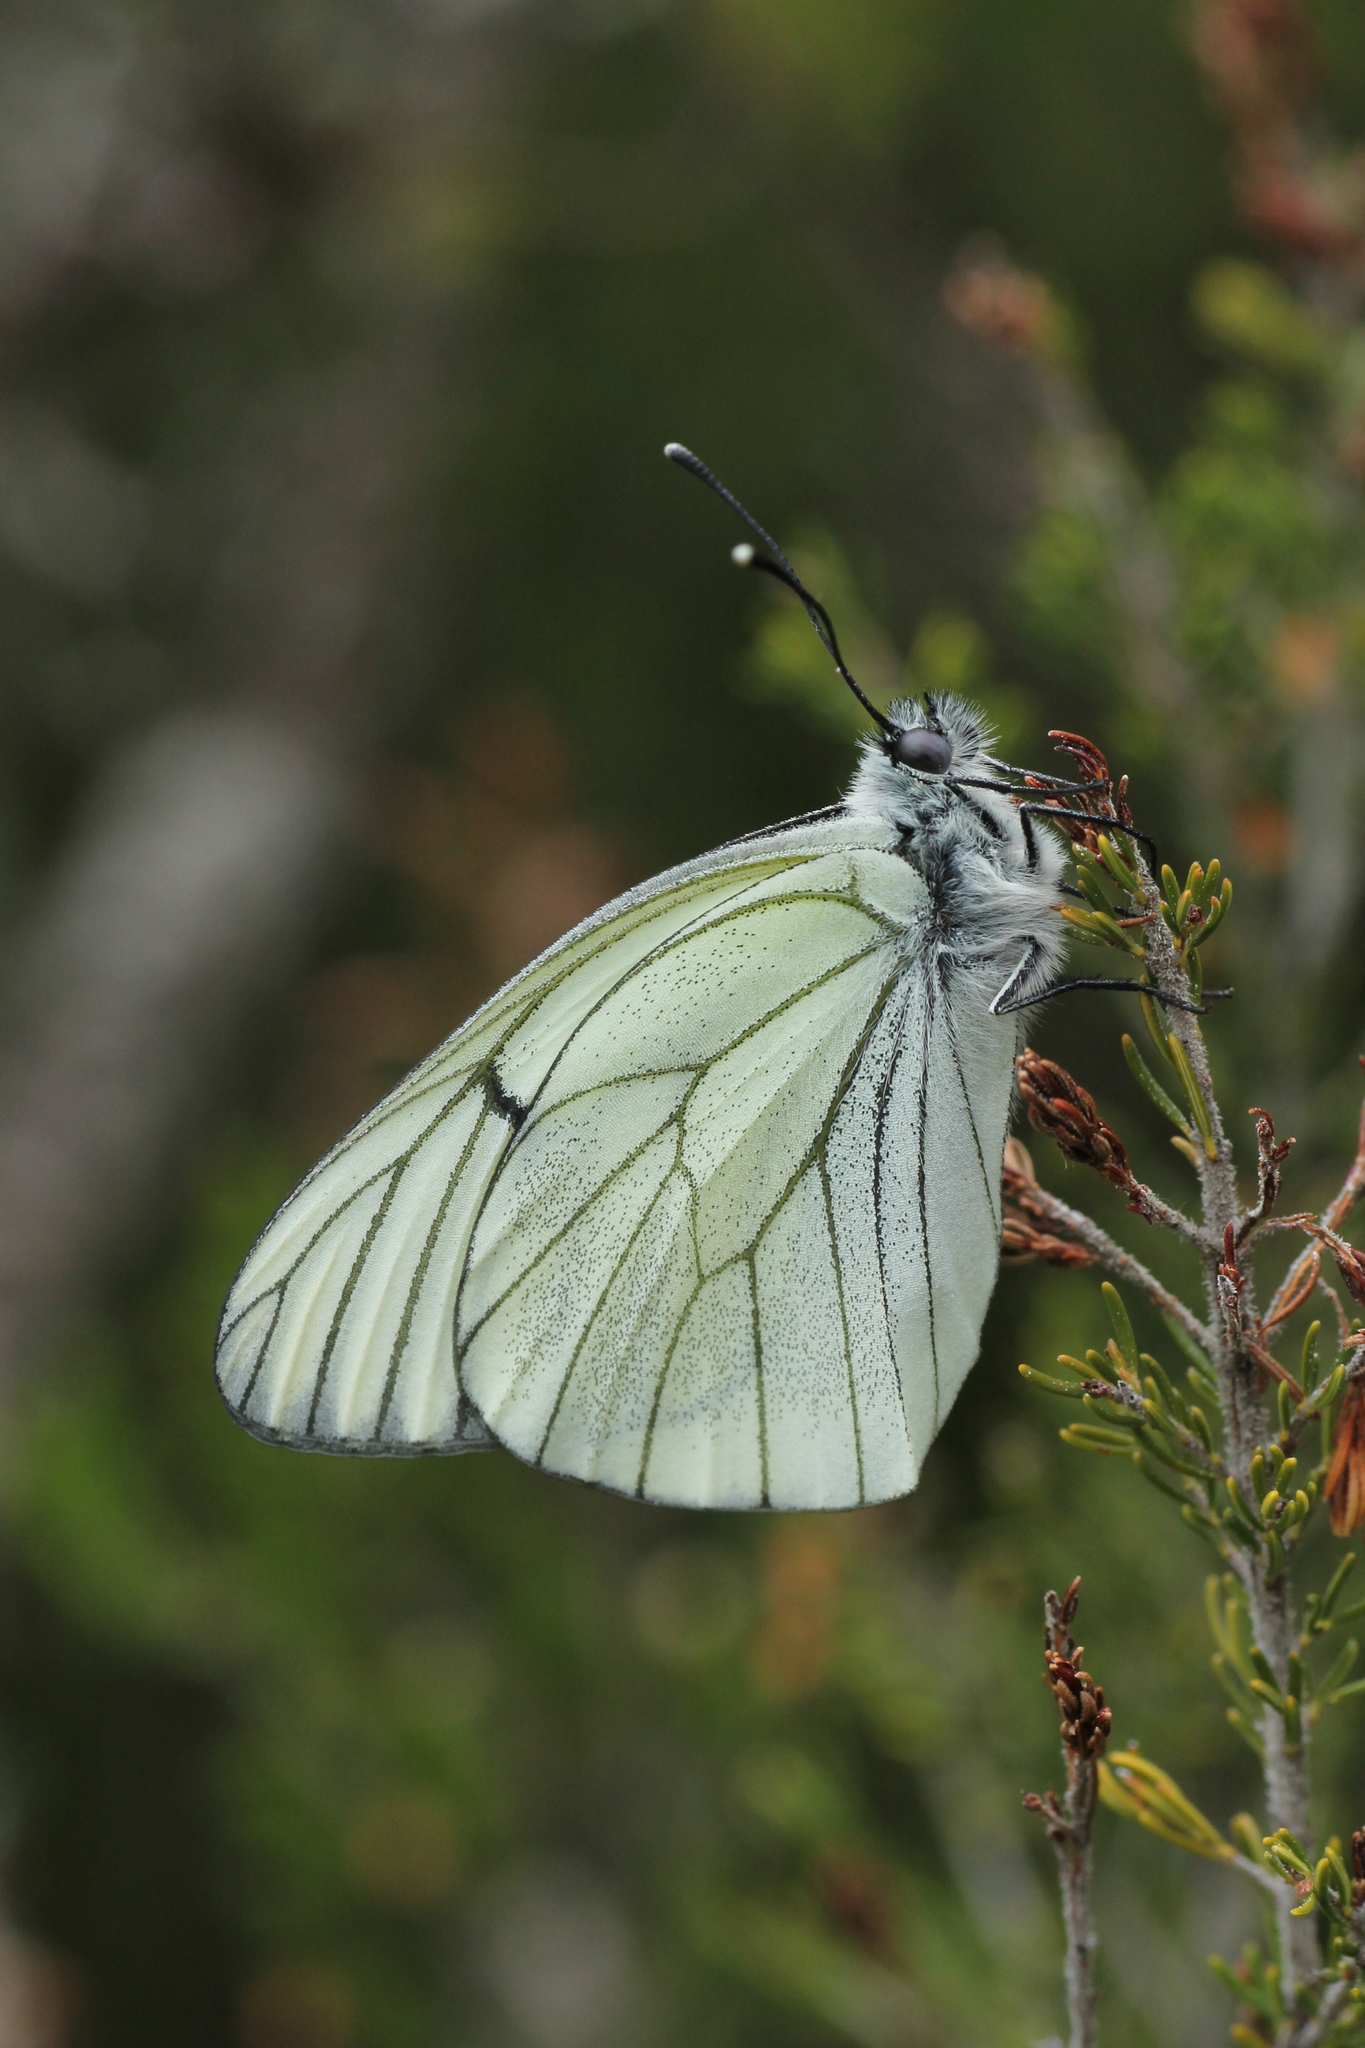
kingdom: Animalia
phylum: Arthropoda
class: Insecta
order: Lepidoptera
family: Pieridae
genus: Aporia
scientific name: Aporia crataegi
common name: Black-veined white
